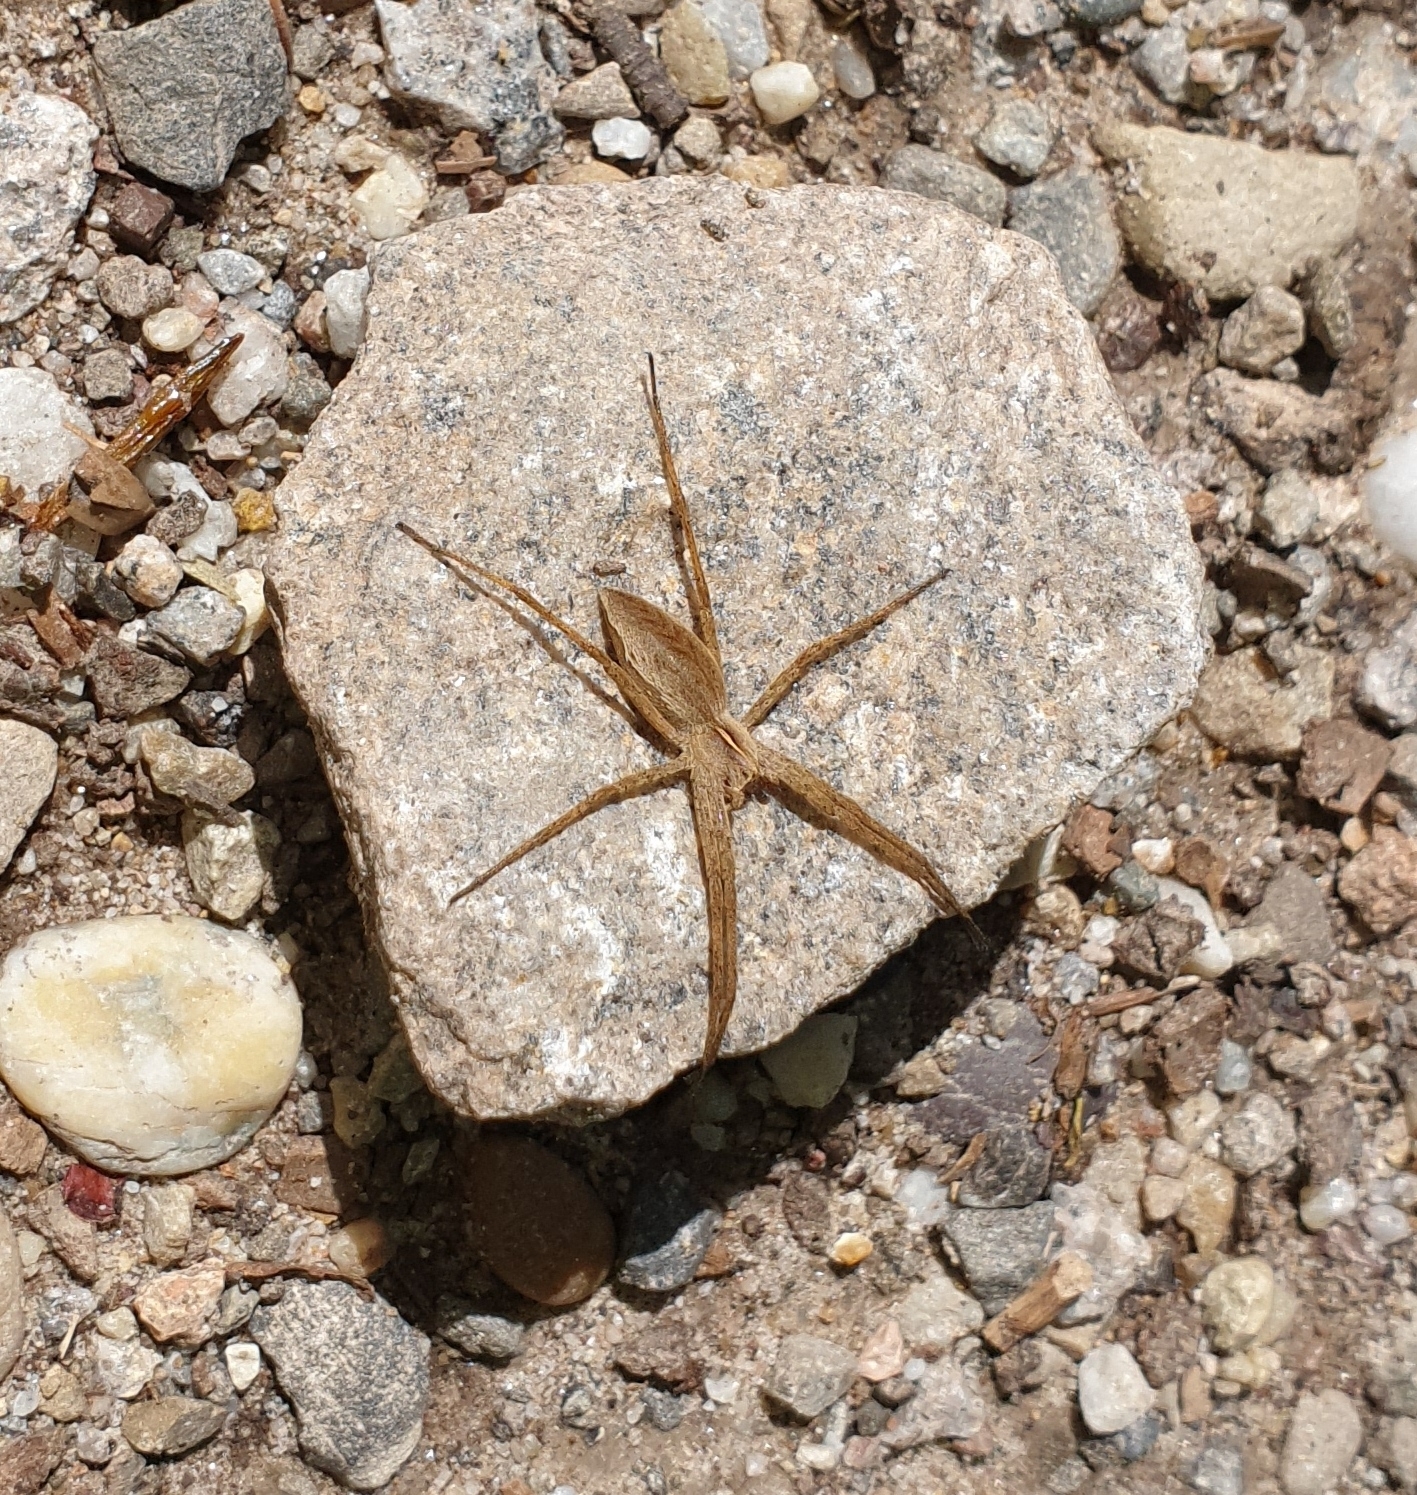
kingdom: Animalia
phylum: Arthropoda
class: Arachnida
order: Araneae
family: Pisauridae
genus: Pisaura
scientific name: Pisaura mirabilis
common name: Tent spider
